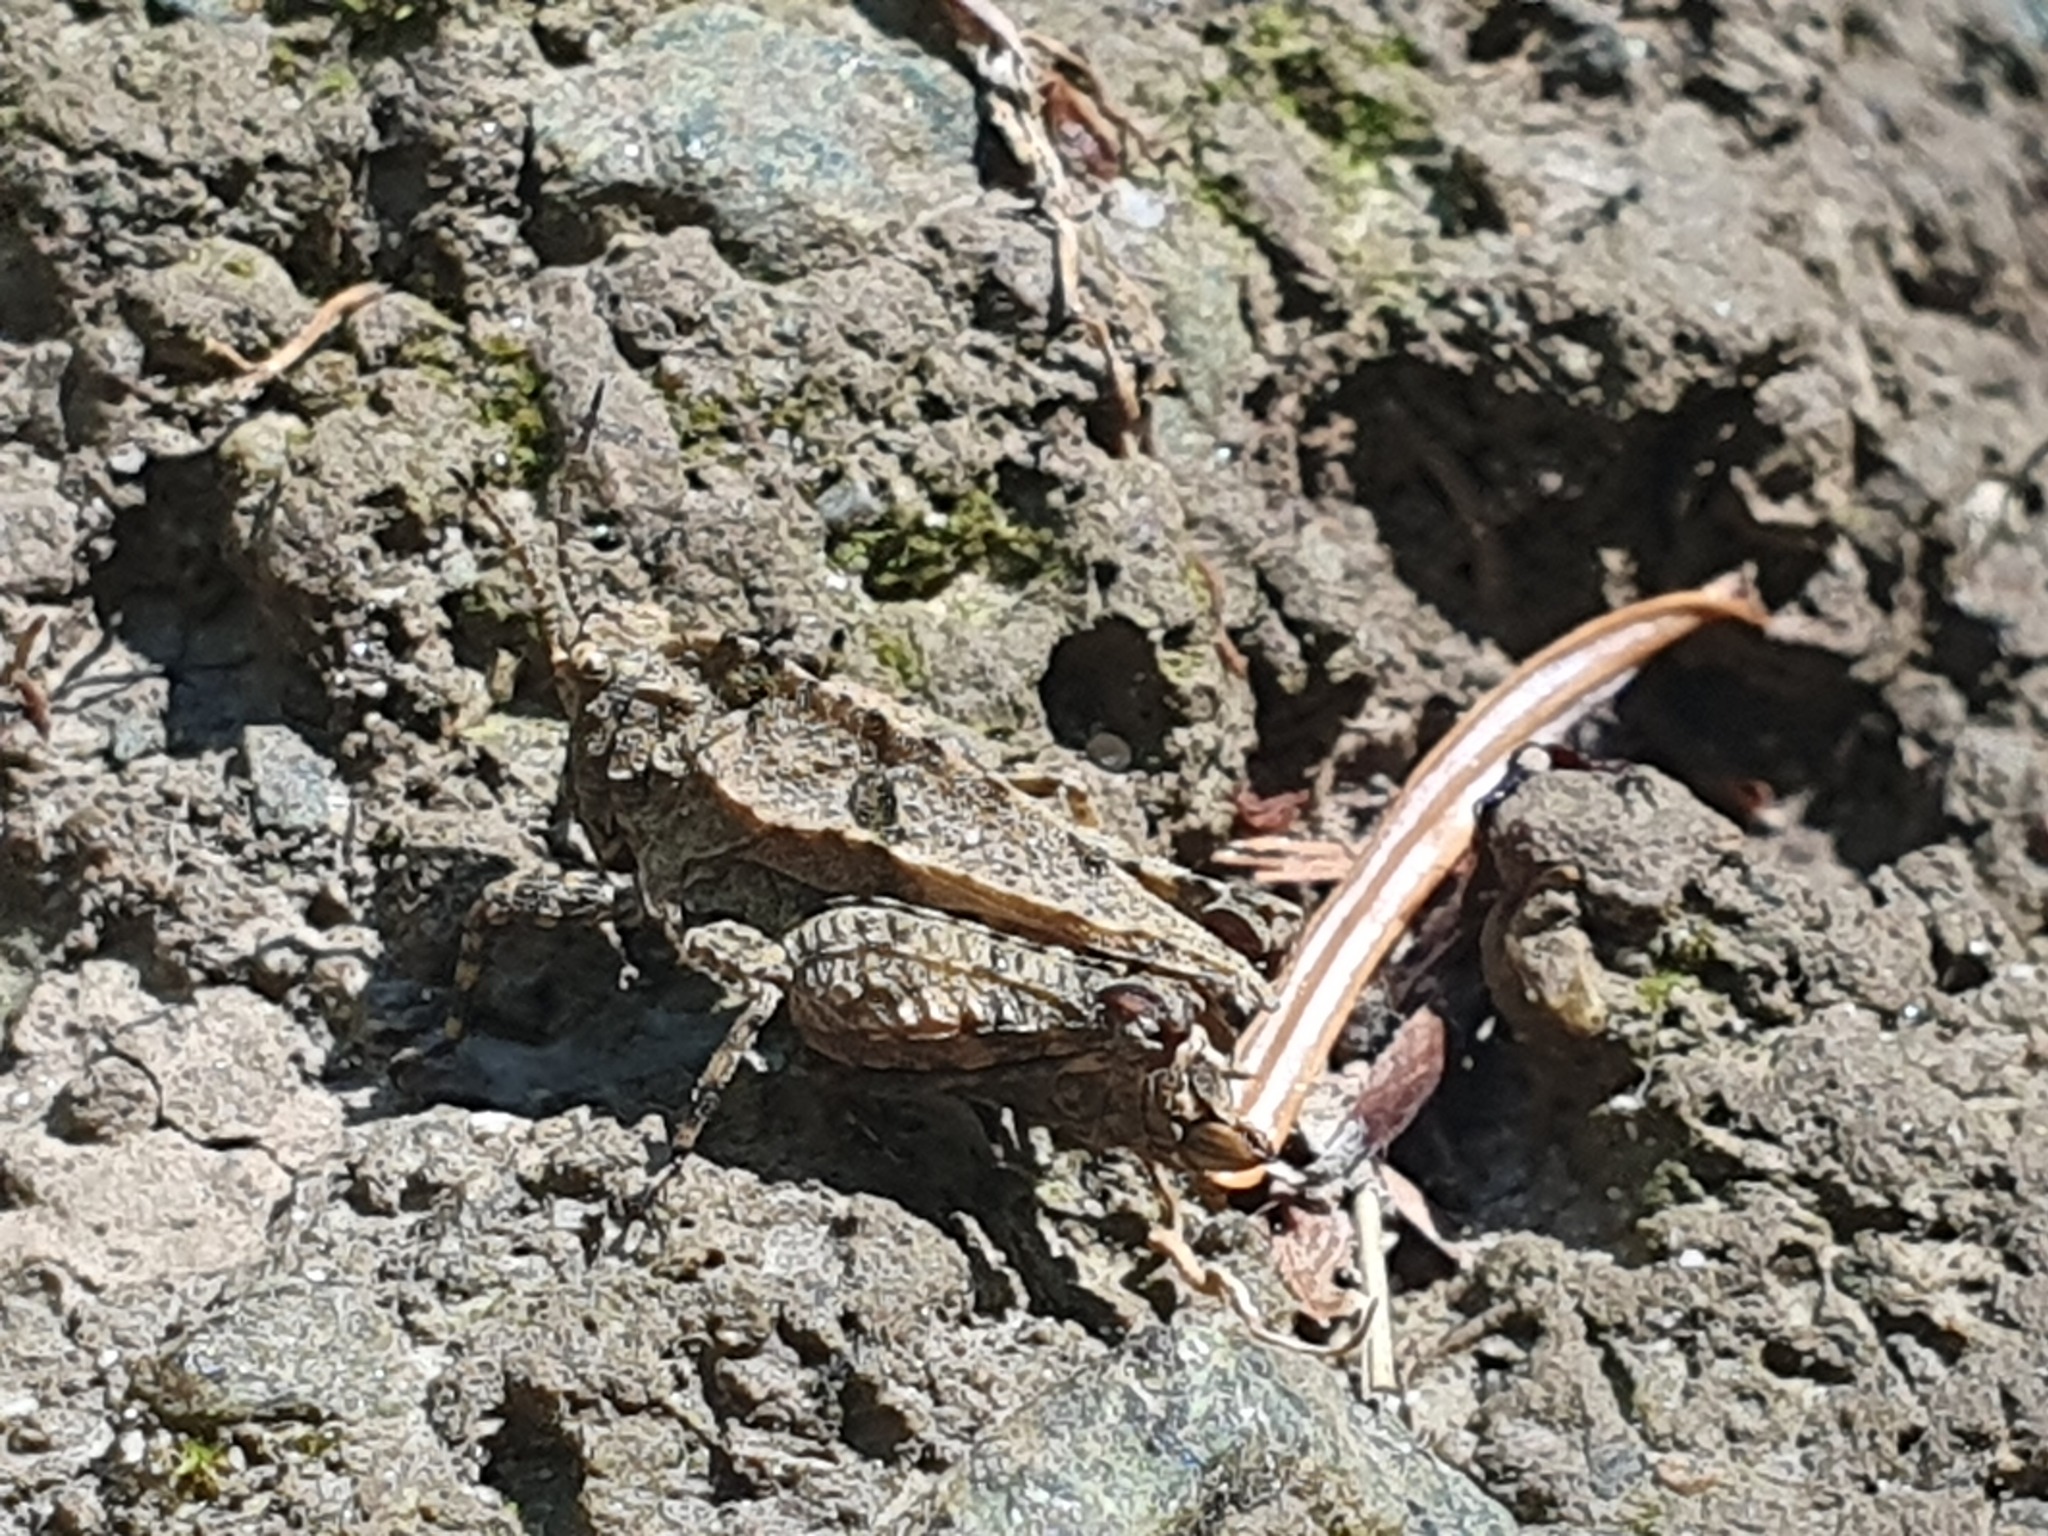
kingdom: Animalia
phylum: Arthropoda
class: Insecta
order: Orthoptera
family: Tetrigidae
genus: Tetrix
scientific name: Tetrix transsylvanica
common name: Transsylvanian wingless groundhopper
